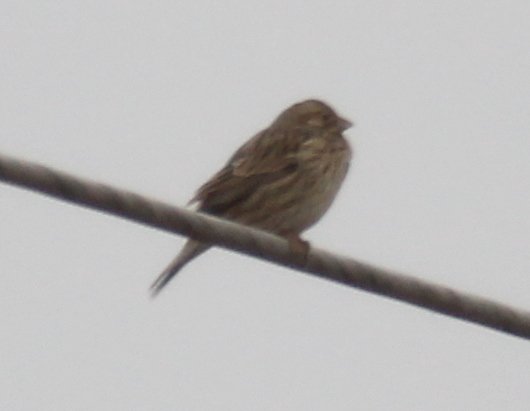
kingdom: Animalia
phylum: Chordata
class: Aves
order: Passeriformes
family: Emberizidae
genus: Emberiza
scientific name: Emberiza calandra
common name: Corn bunting
